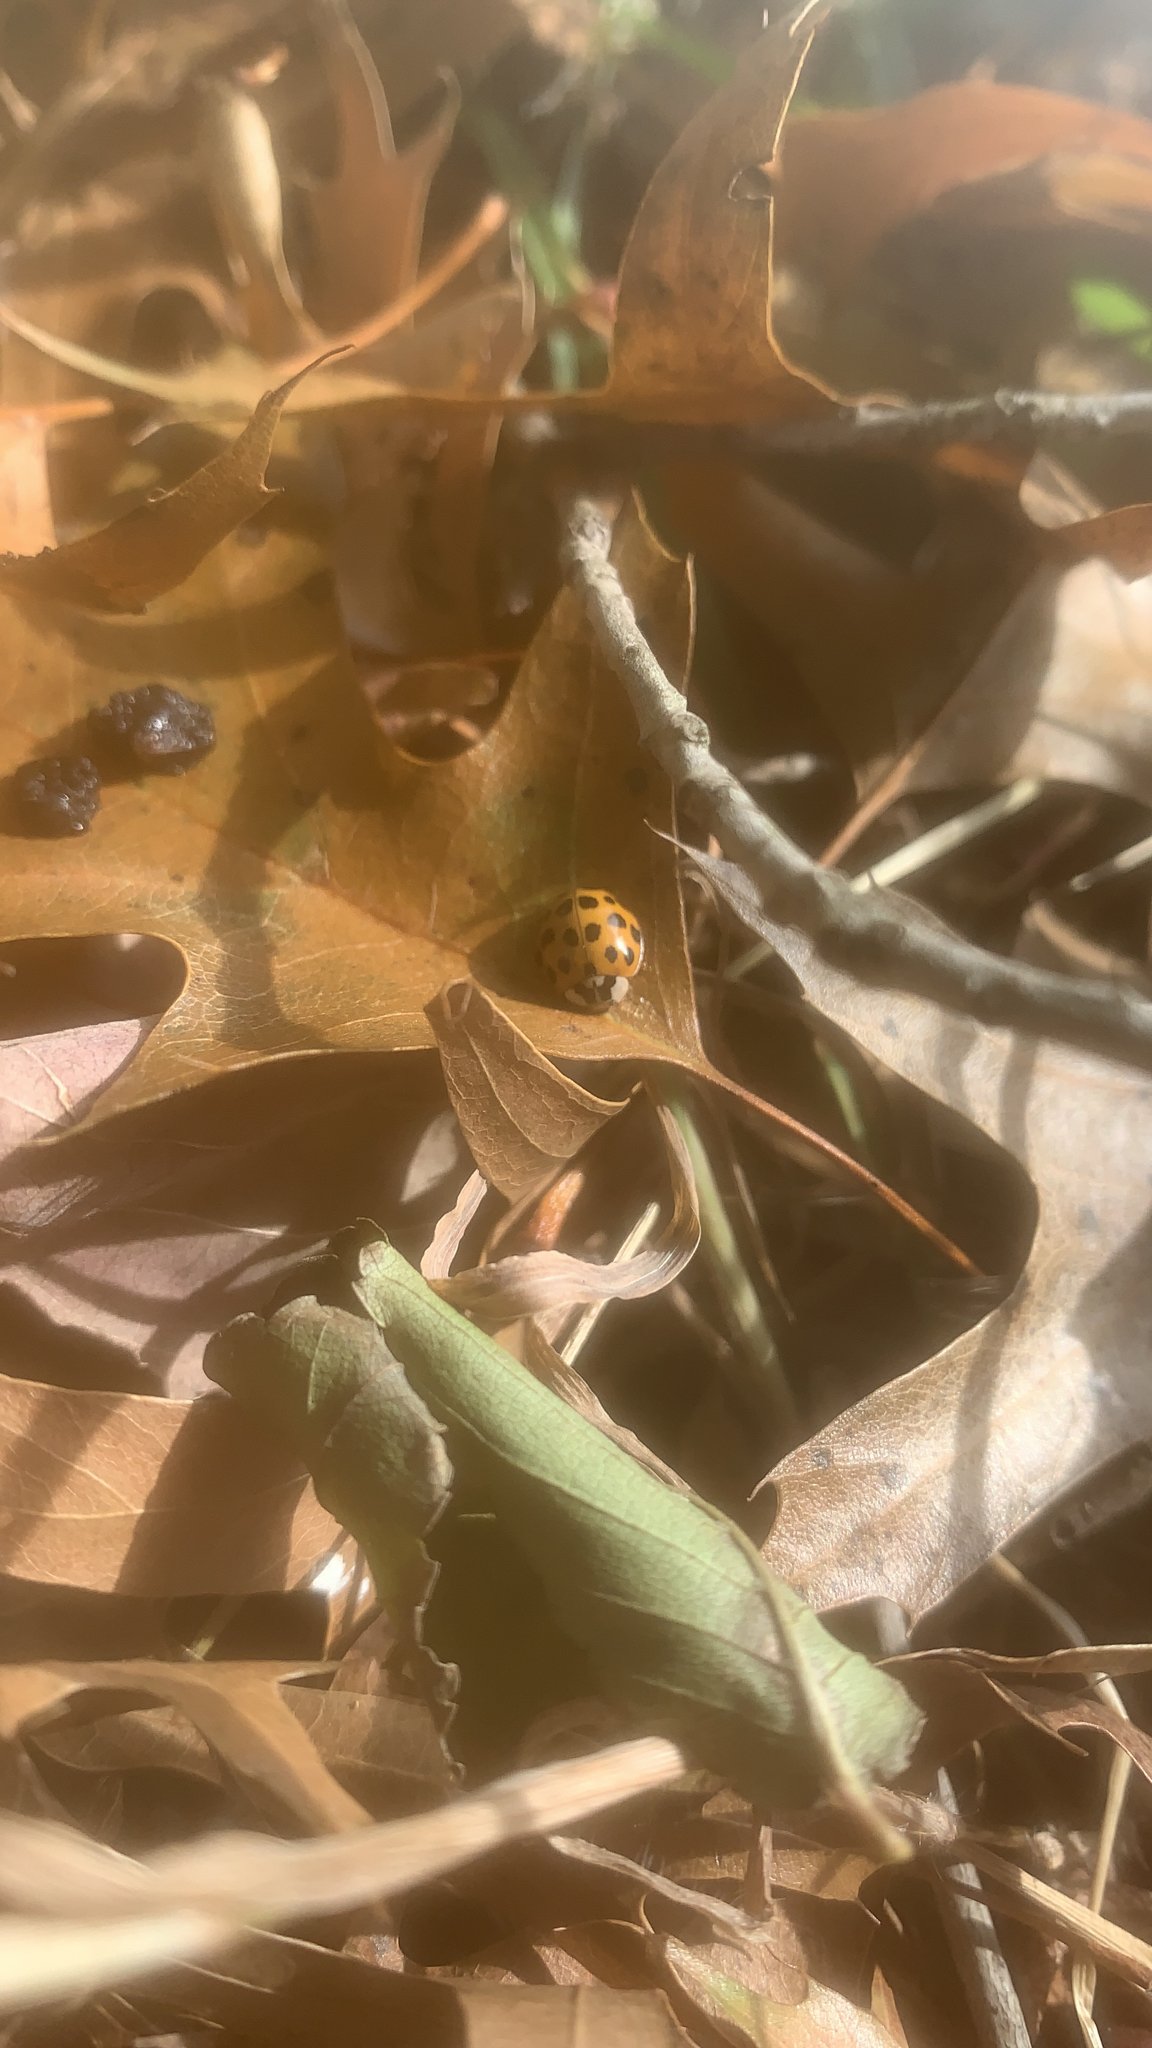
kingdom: Animalia
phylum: Arthropoda
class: Insecta
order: Coleoptera
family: Coccinellidae
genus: Harmonia
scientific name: Harmonia axyridis
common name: Harlequin ladybird
